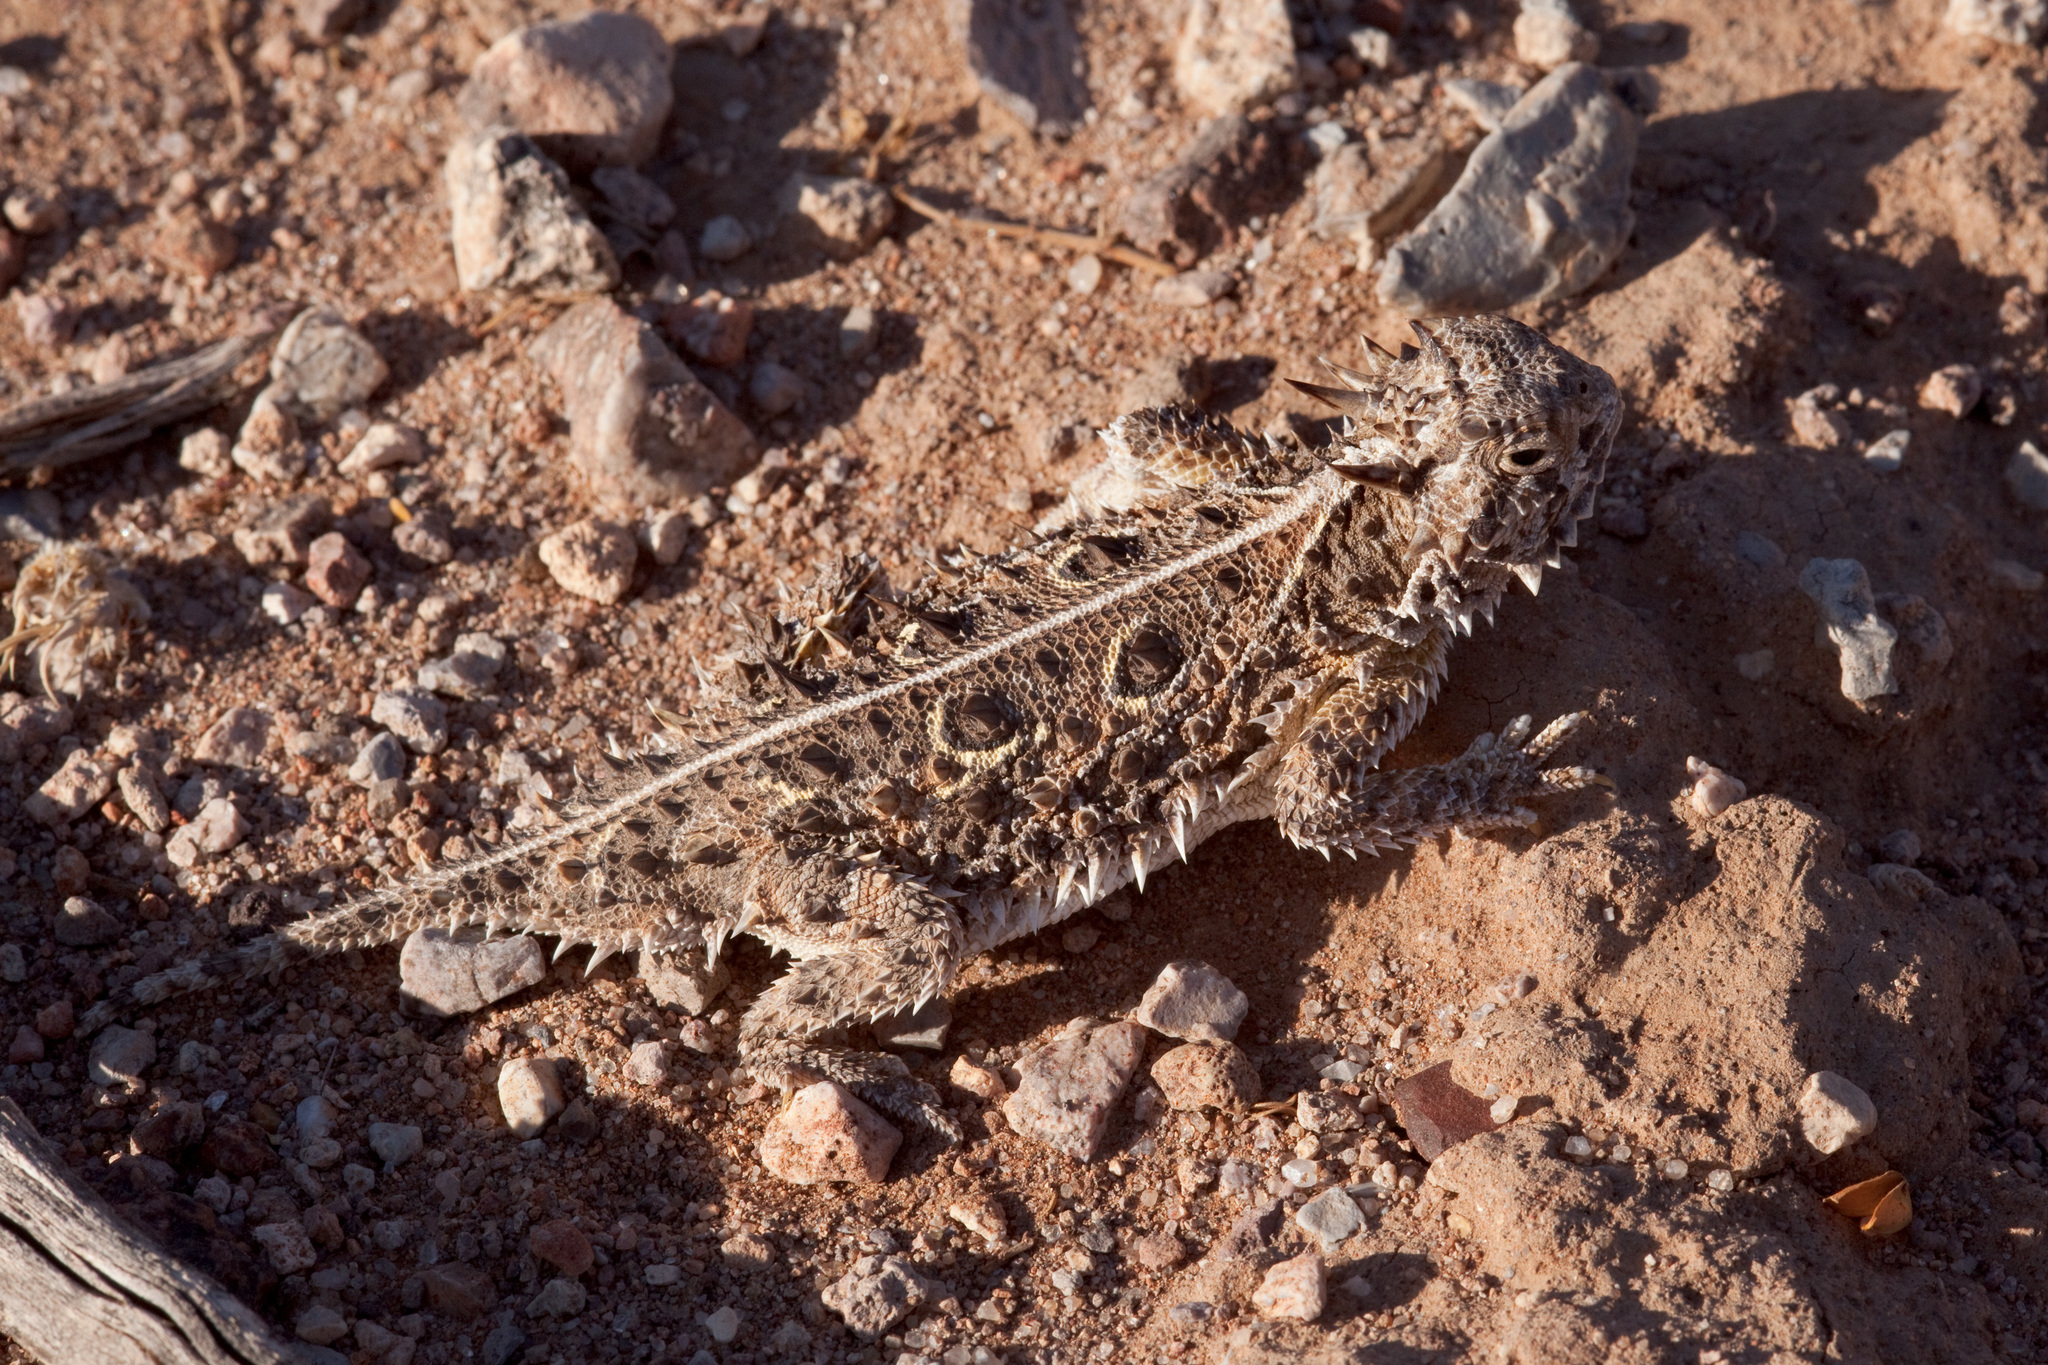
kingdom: Animalia
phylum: Chordata
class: Squamata
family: Phrynosomatidae
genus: Phrynosoma
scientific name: Phrynosoma cornutum
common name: Texas horned lizard
